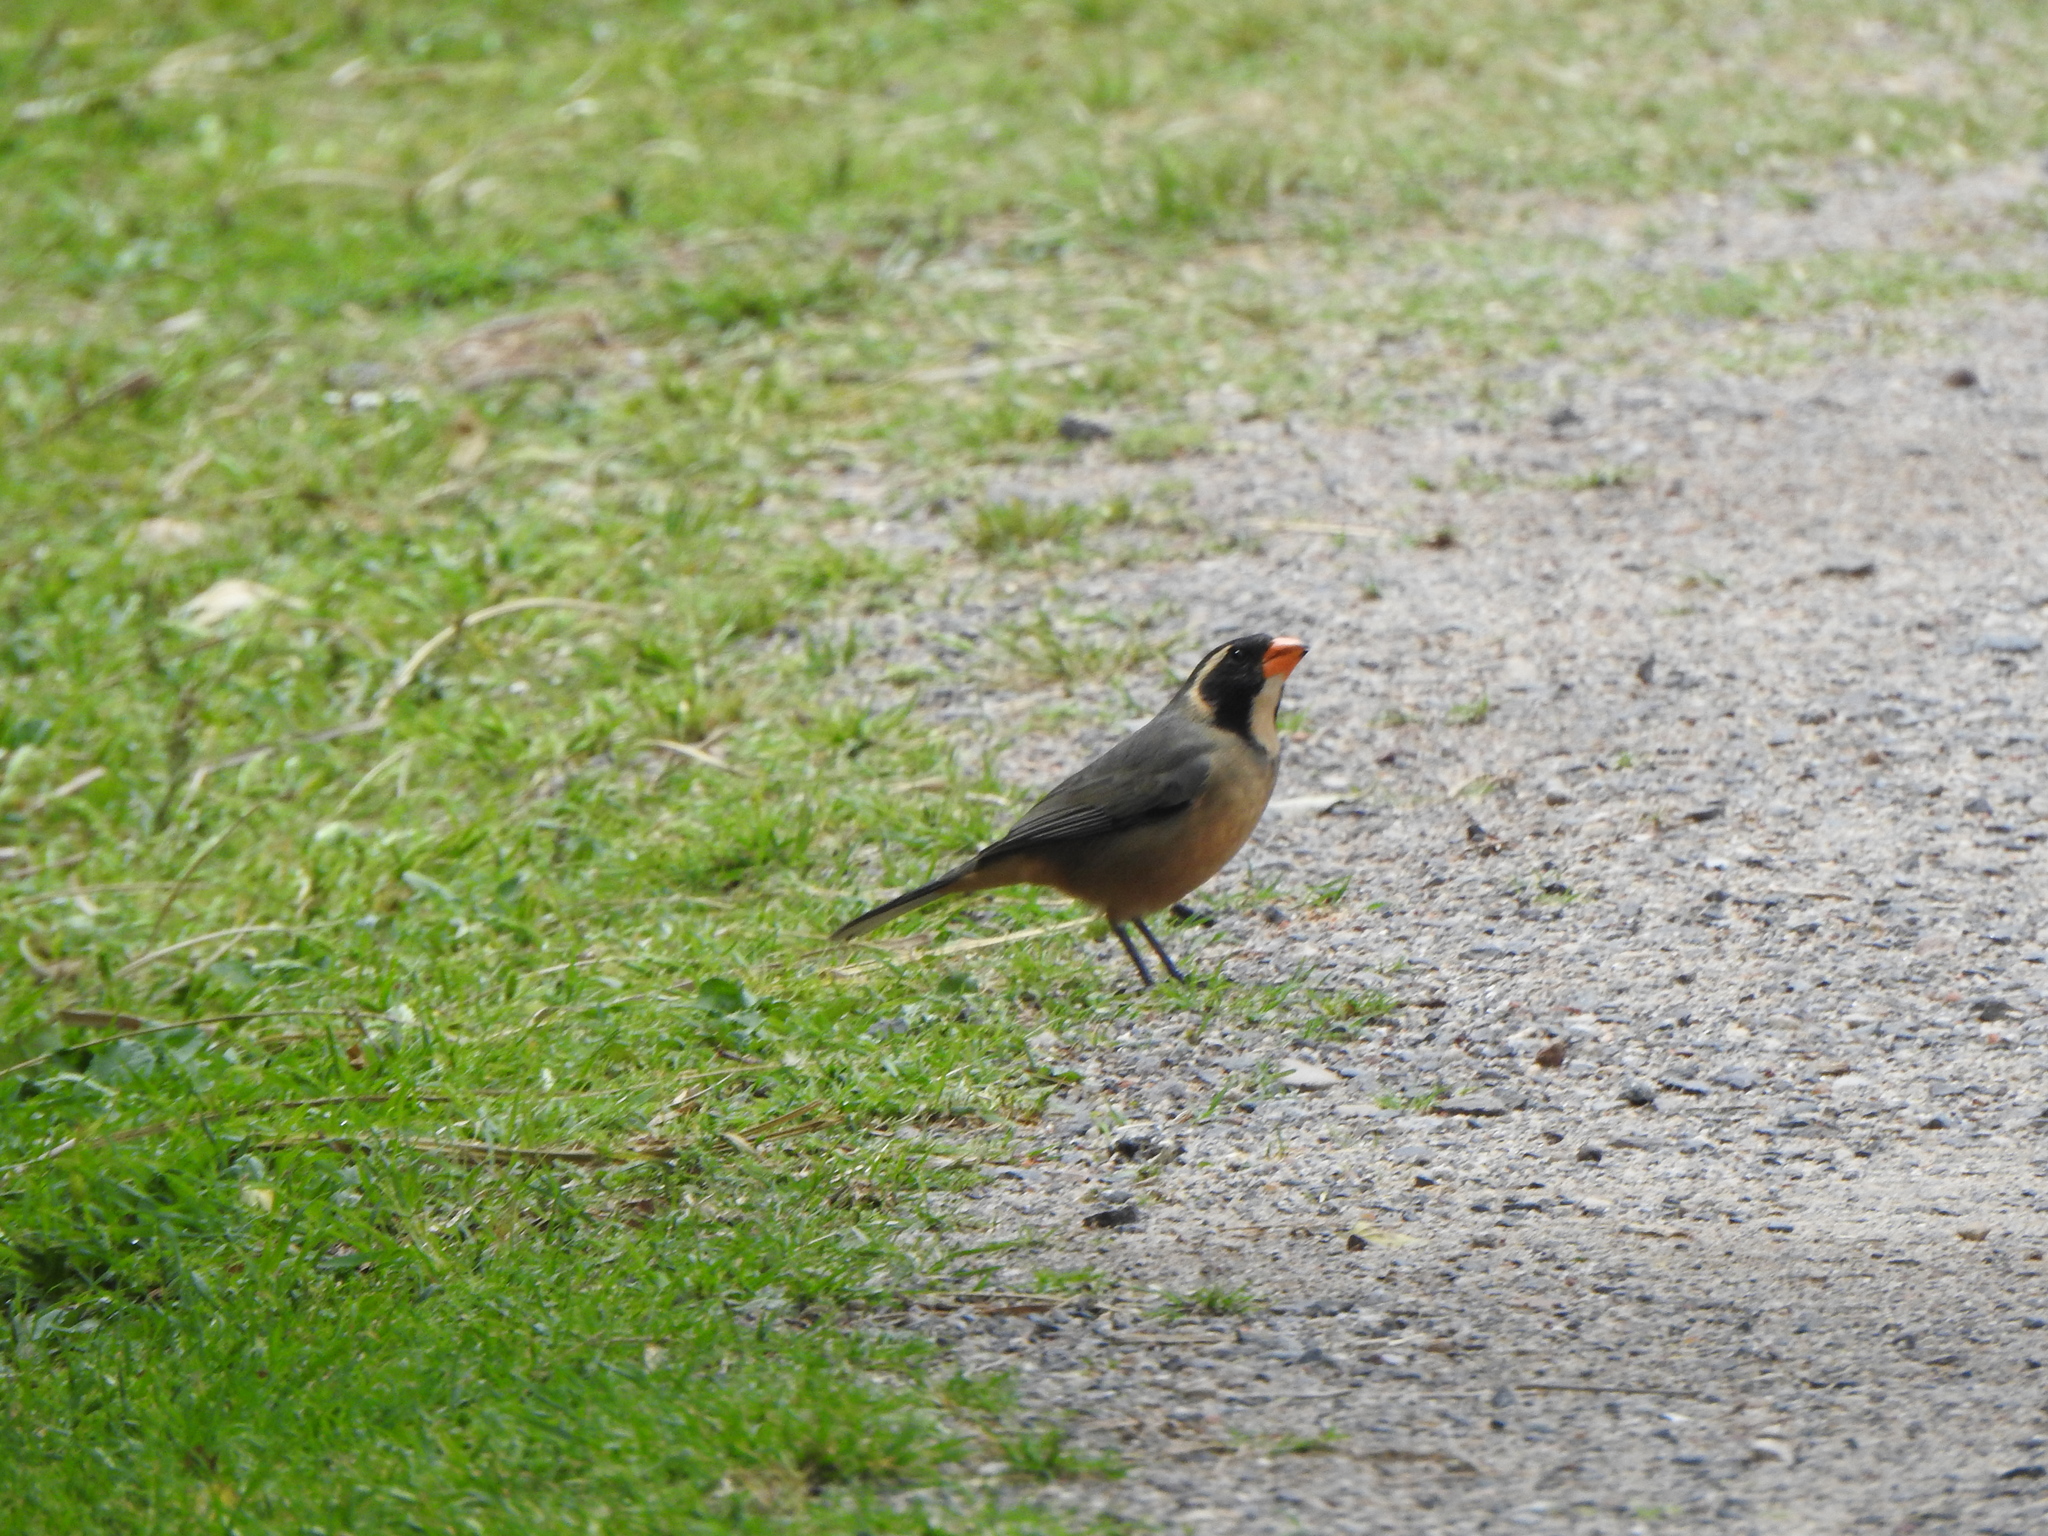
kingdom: Animalia
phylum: Chordata
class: Aves
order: Passeriformes
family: Thraupidae
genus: Saltator
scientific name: Saltator aurantiirostris
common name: Golden-billed saltator
